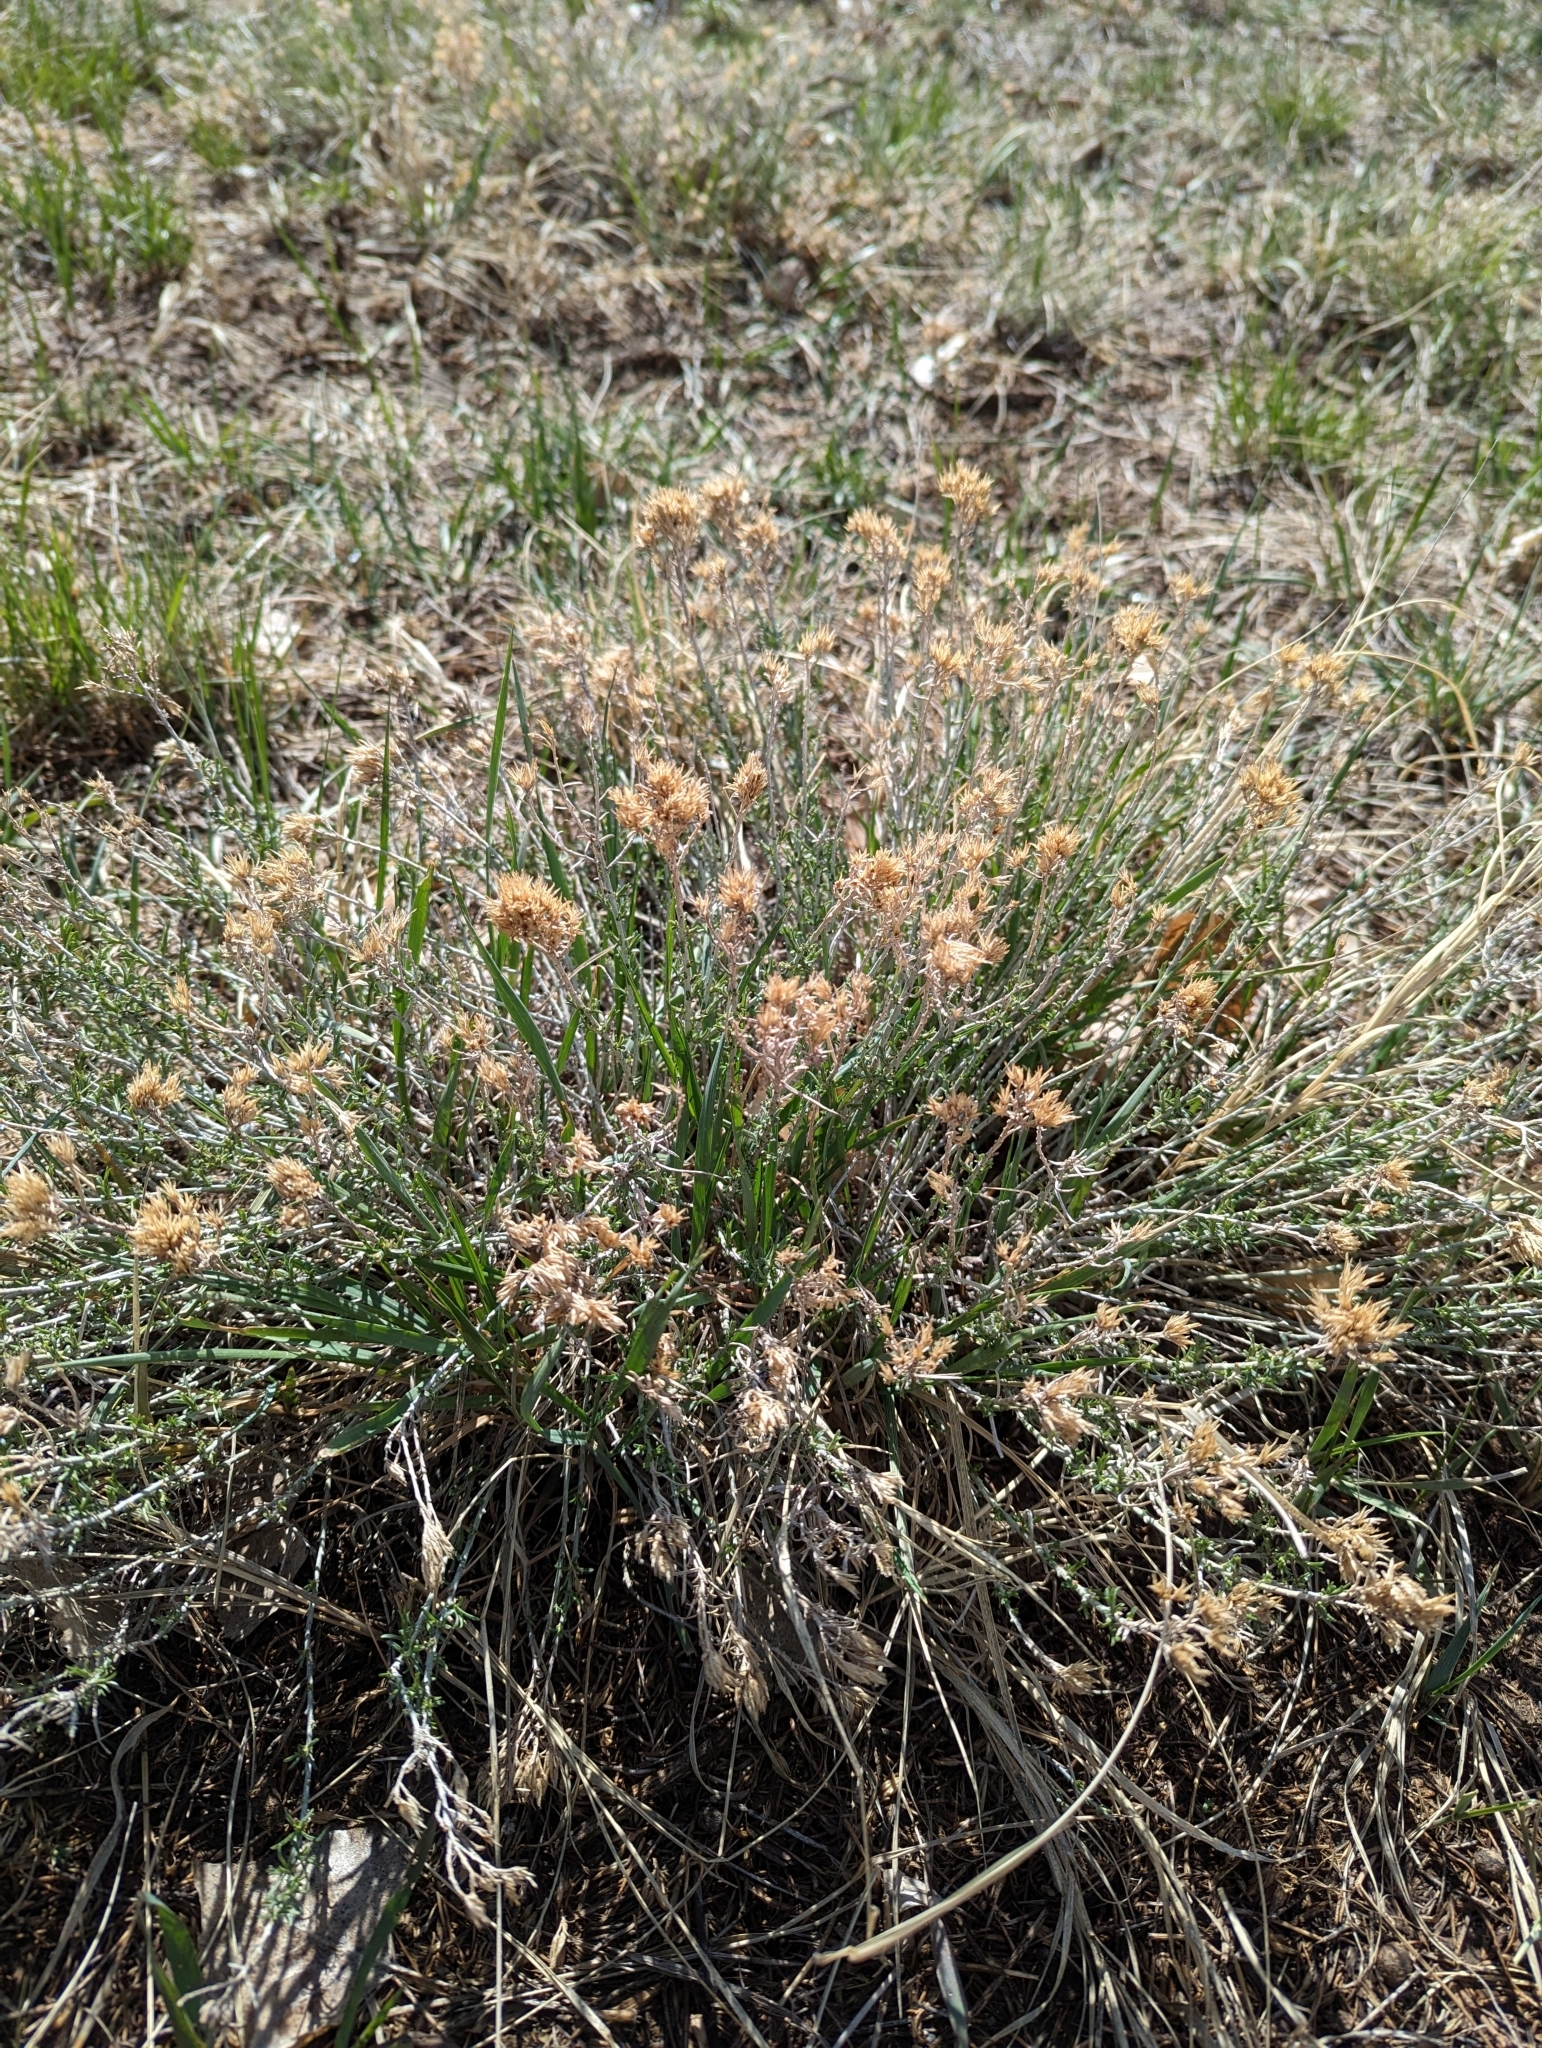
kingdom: Plantae
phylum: Tracheophyta
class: Magnoliopsida
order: Asterales
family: Asteraceae
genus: Ericameria
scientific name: Ericameria nauseosa
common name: Rubber rabbitbrush
